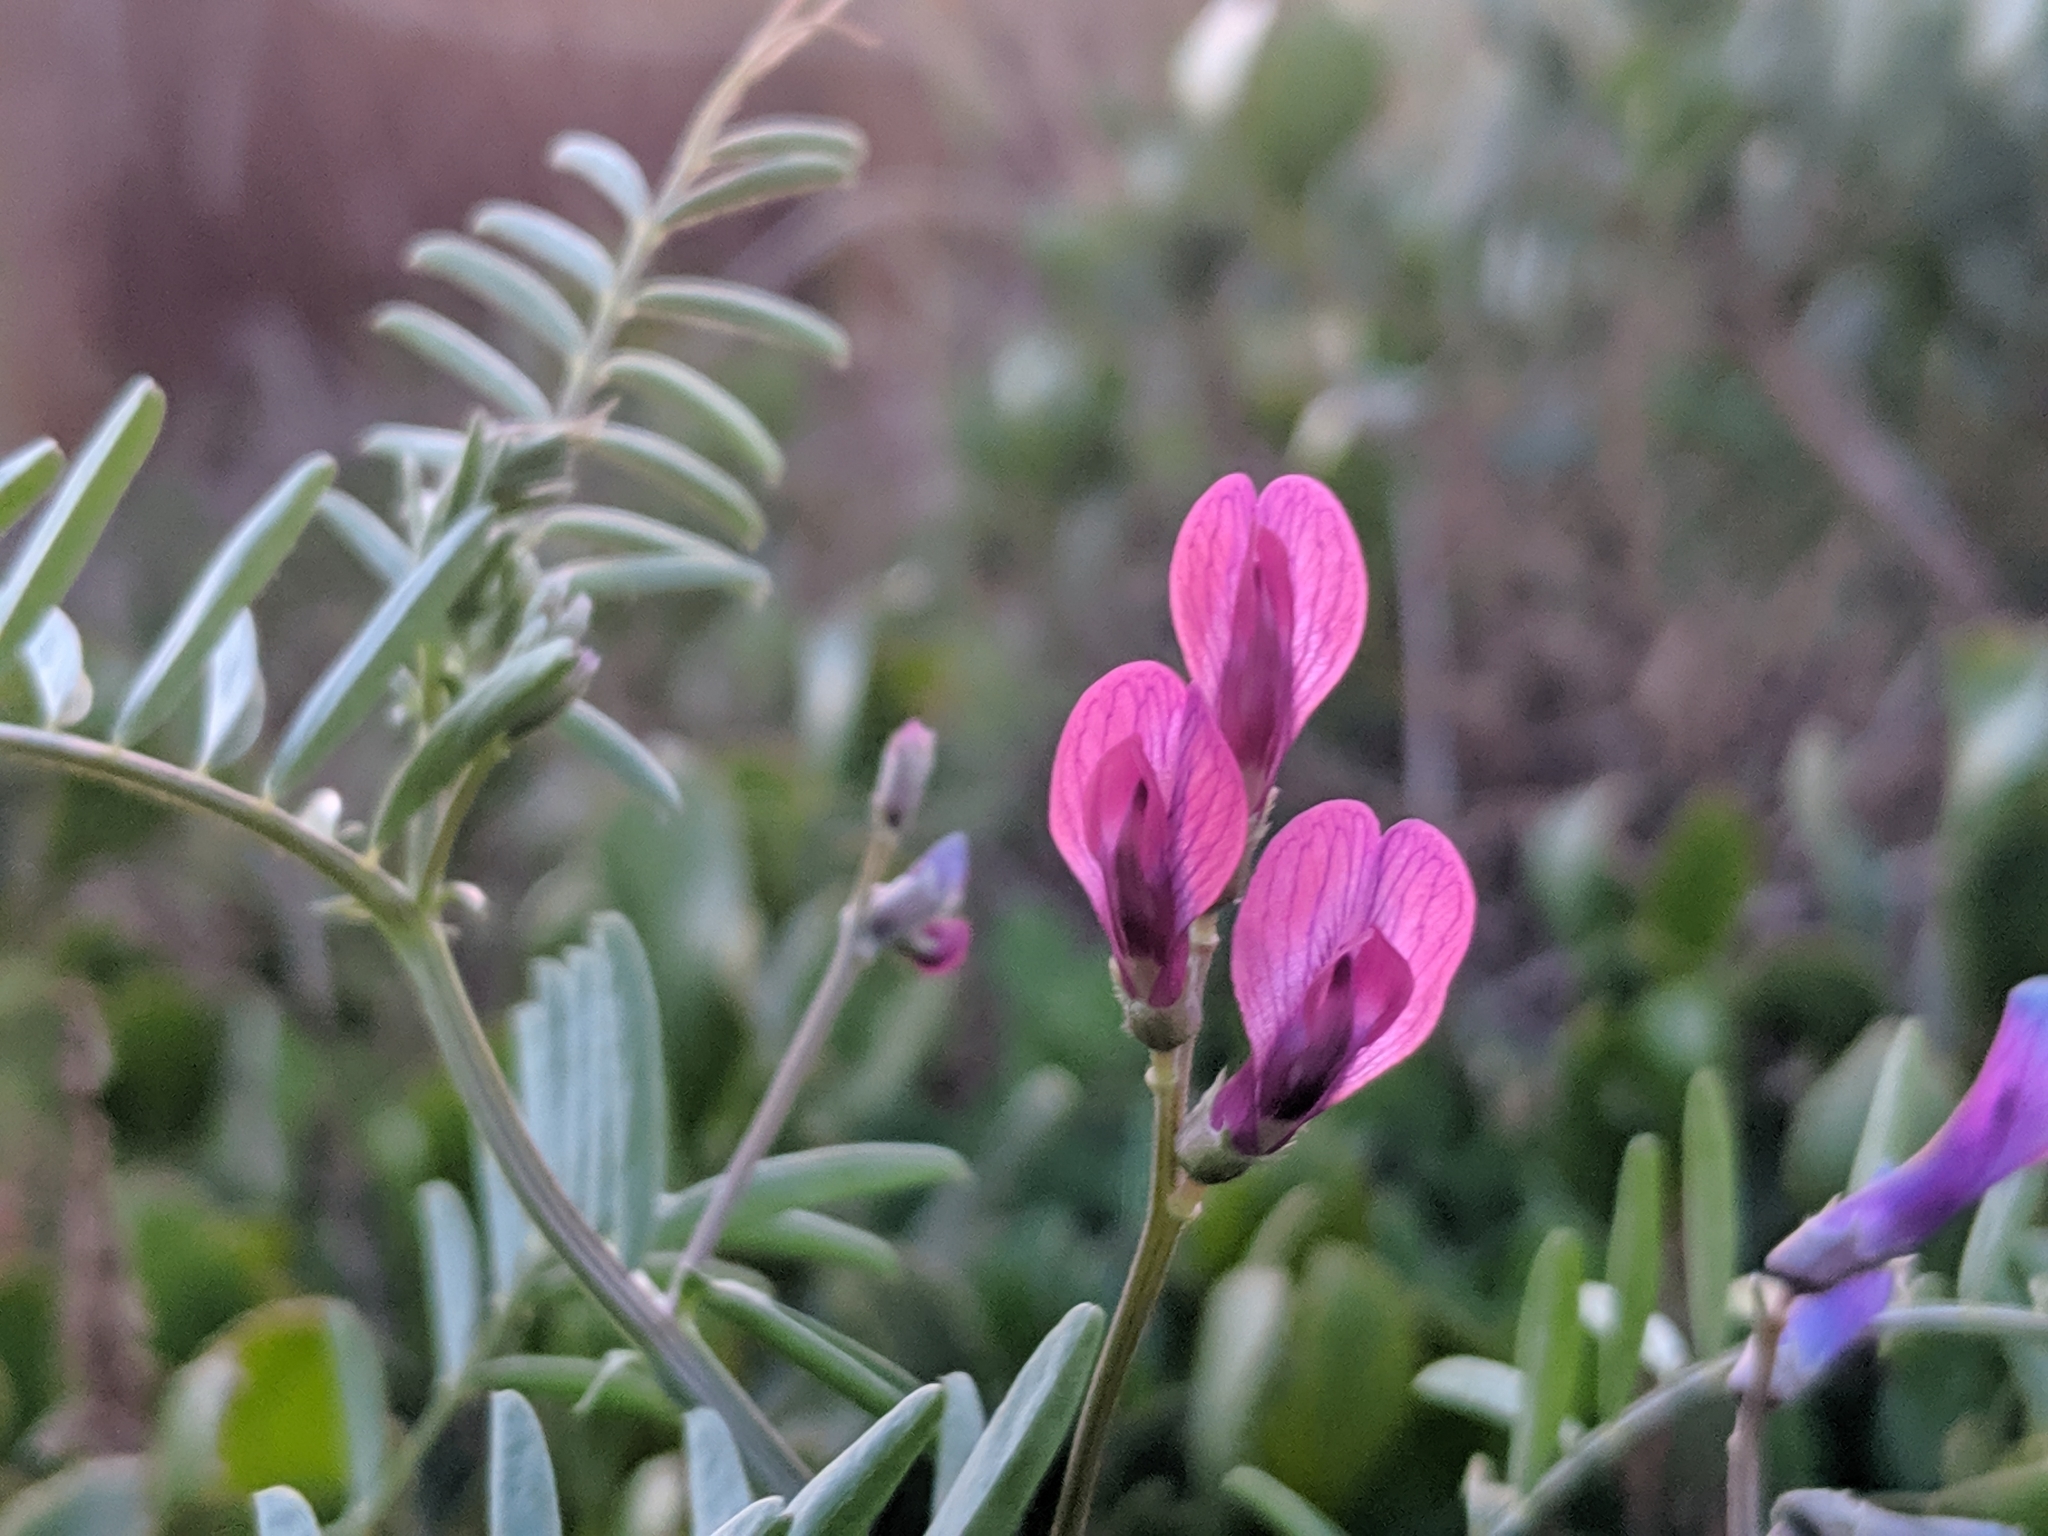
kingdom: Plantae
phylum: Tracheophyta
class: Magnoliopsida
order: Fabales
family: Fabaceae
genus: Vicia
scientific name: Vicia sativa
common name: Garden vetch
